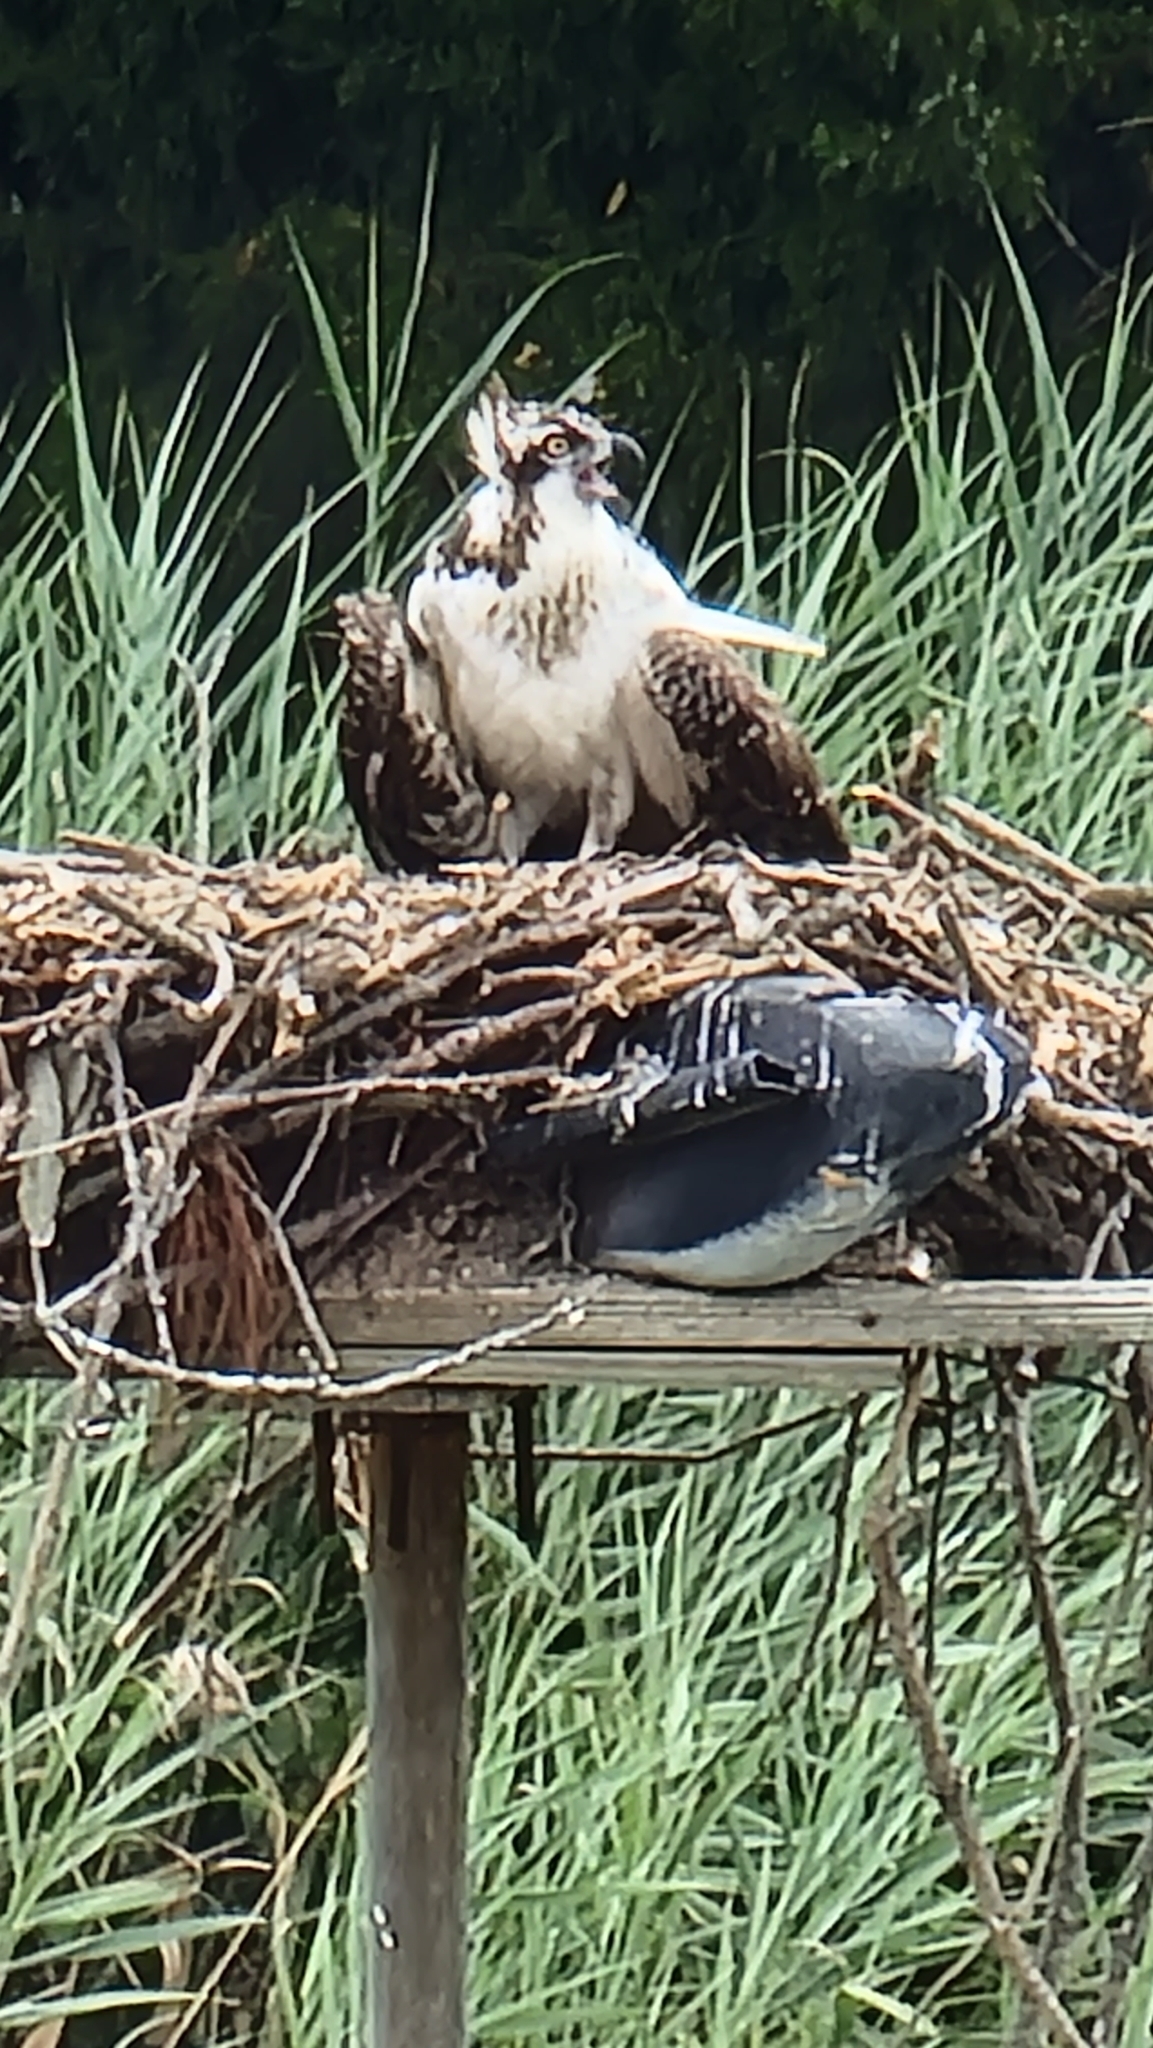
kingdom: Animalia
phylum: Chordata
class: Aves
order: Accipitriformes
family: Pandionidae
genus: Pandion
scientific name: Pandion haliaetus
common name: Osprey
